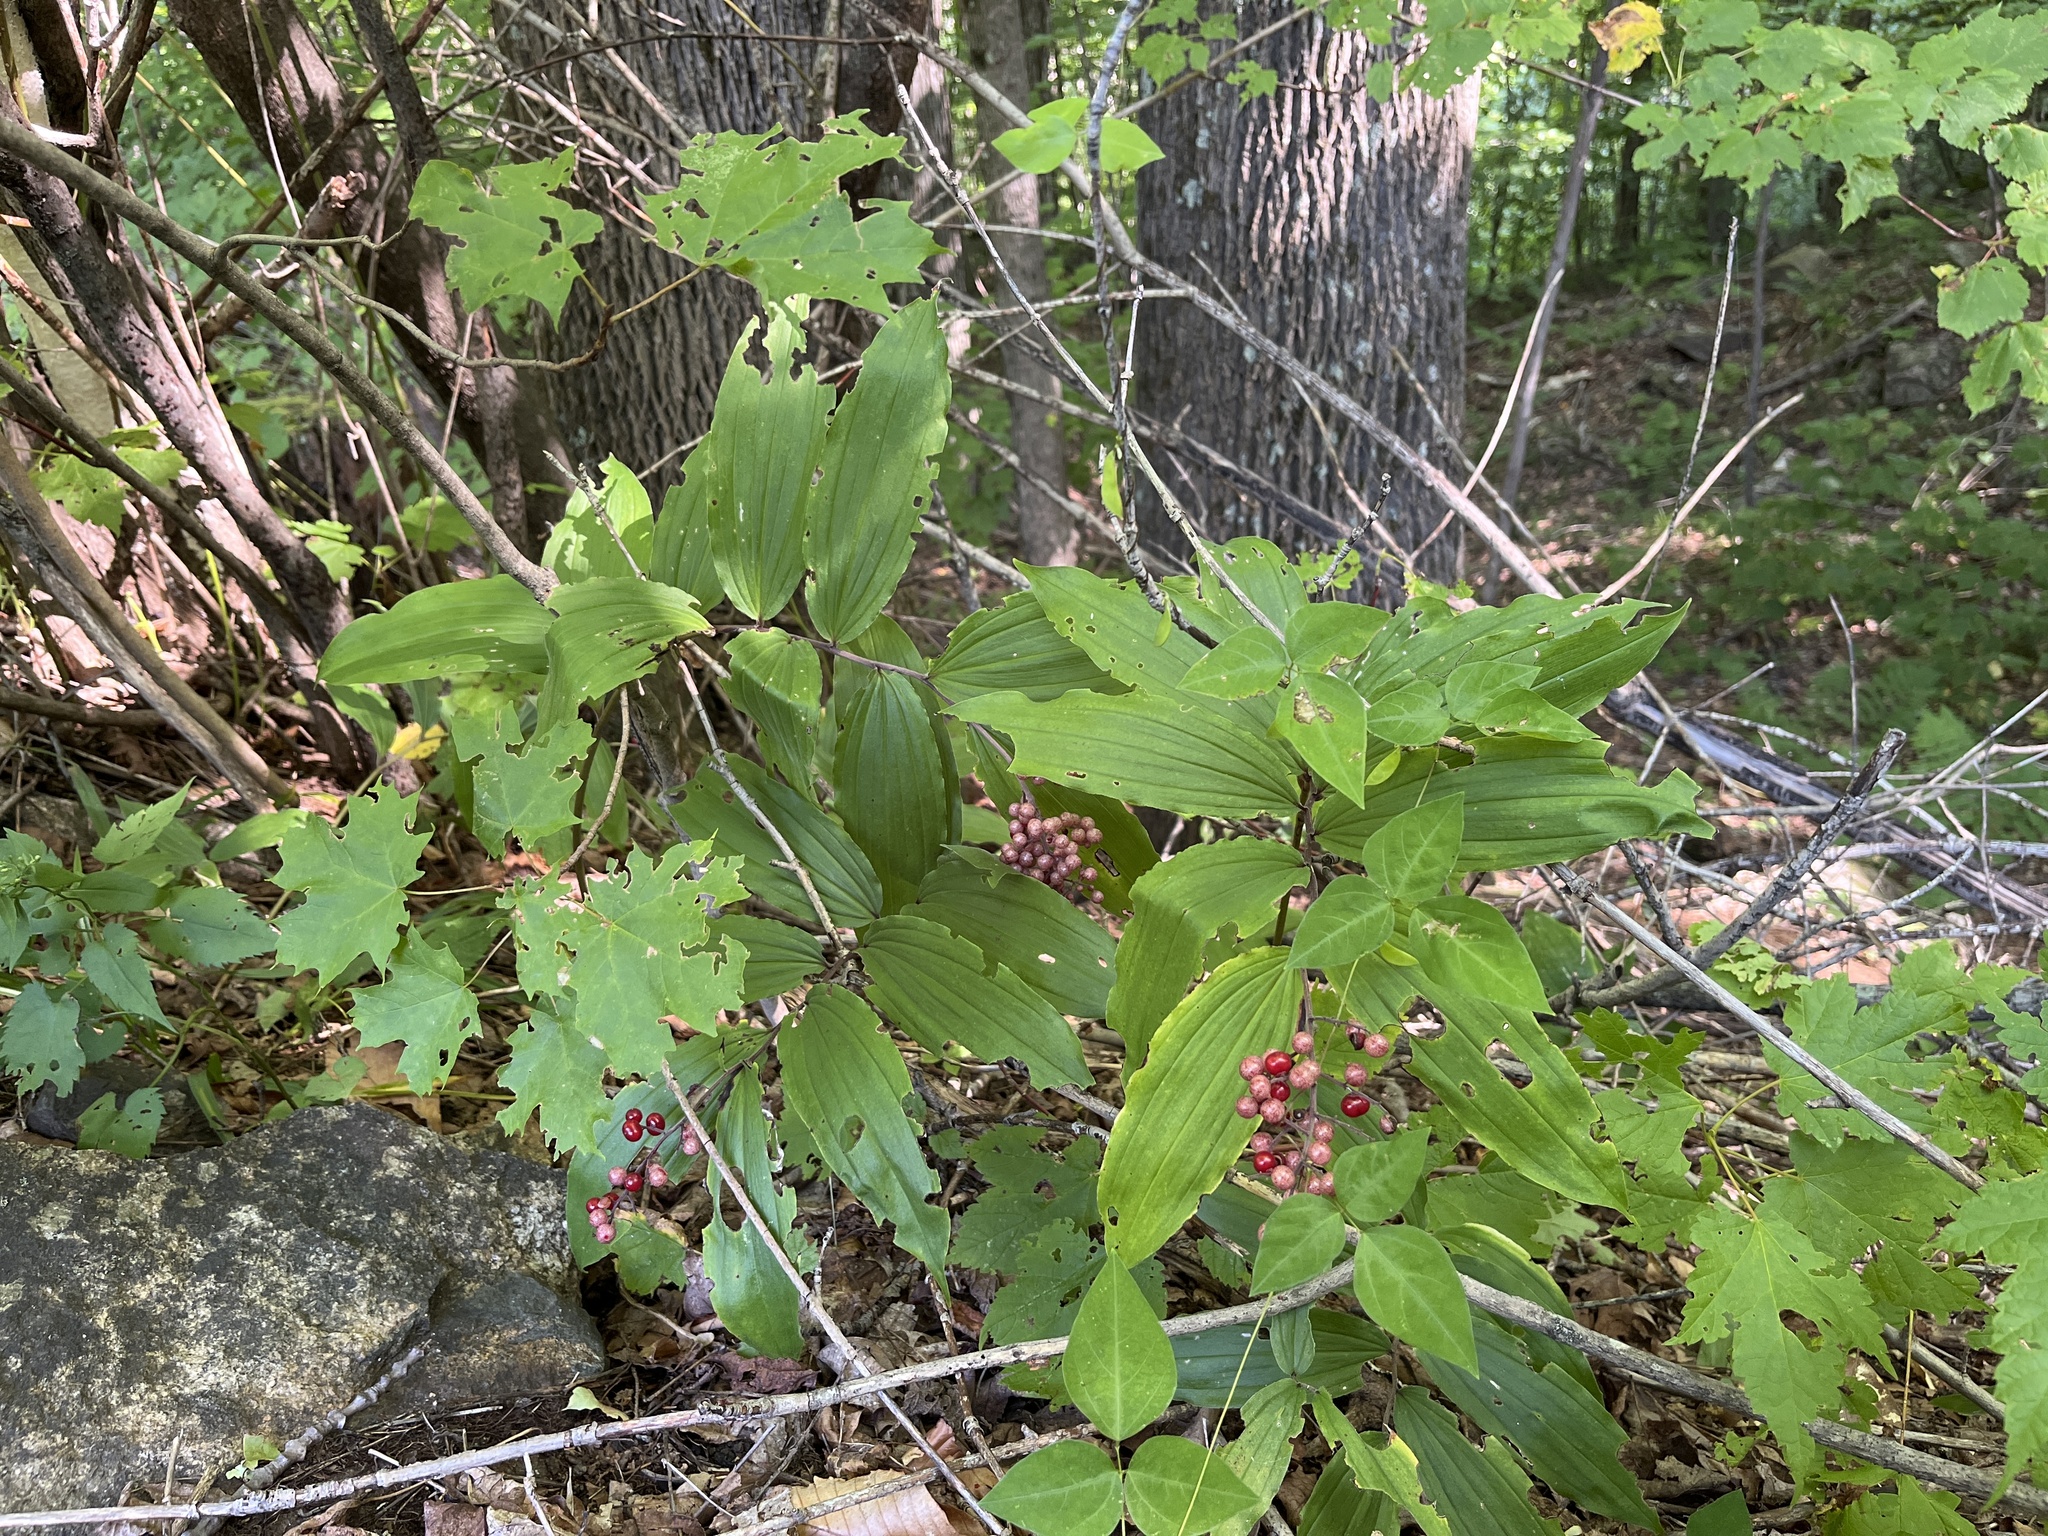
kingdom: Plantae
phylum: Tracheophyta
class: Liliopsida
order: Asparagales
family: Asparagaceae
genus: Maianthemum
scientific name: Maianthemum racemosum
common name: False spikenard
